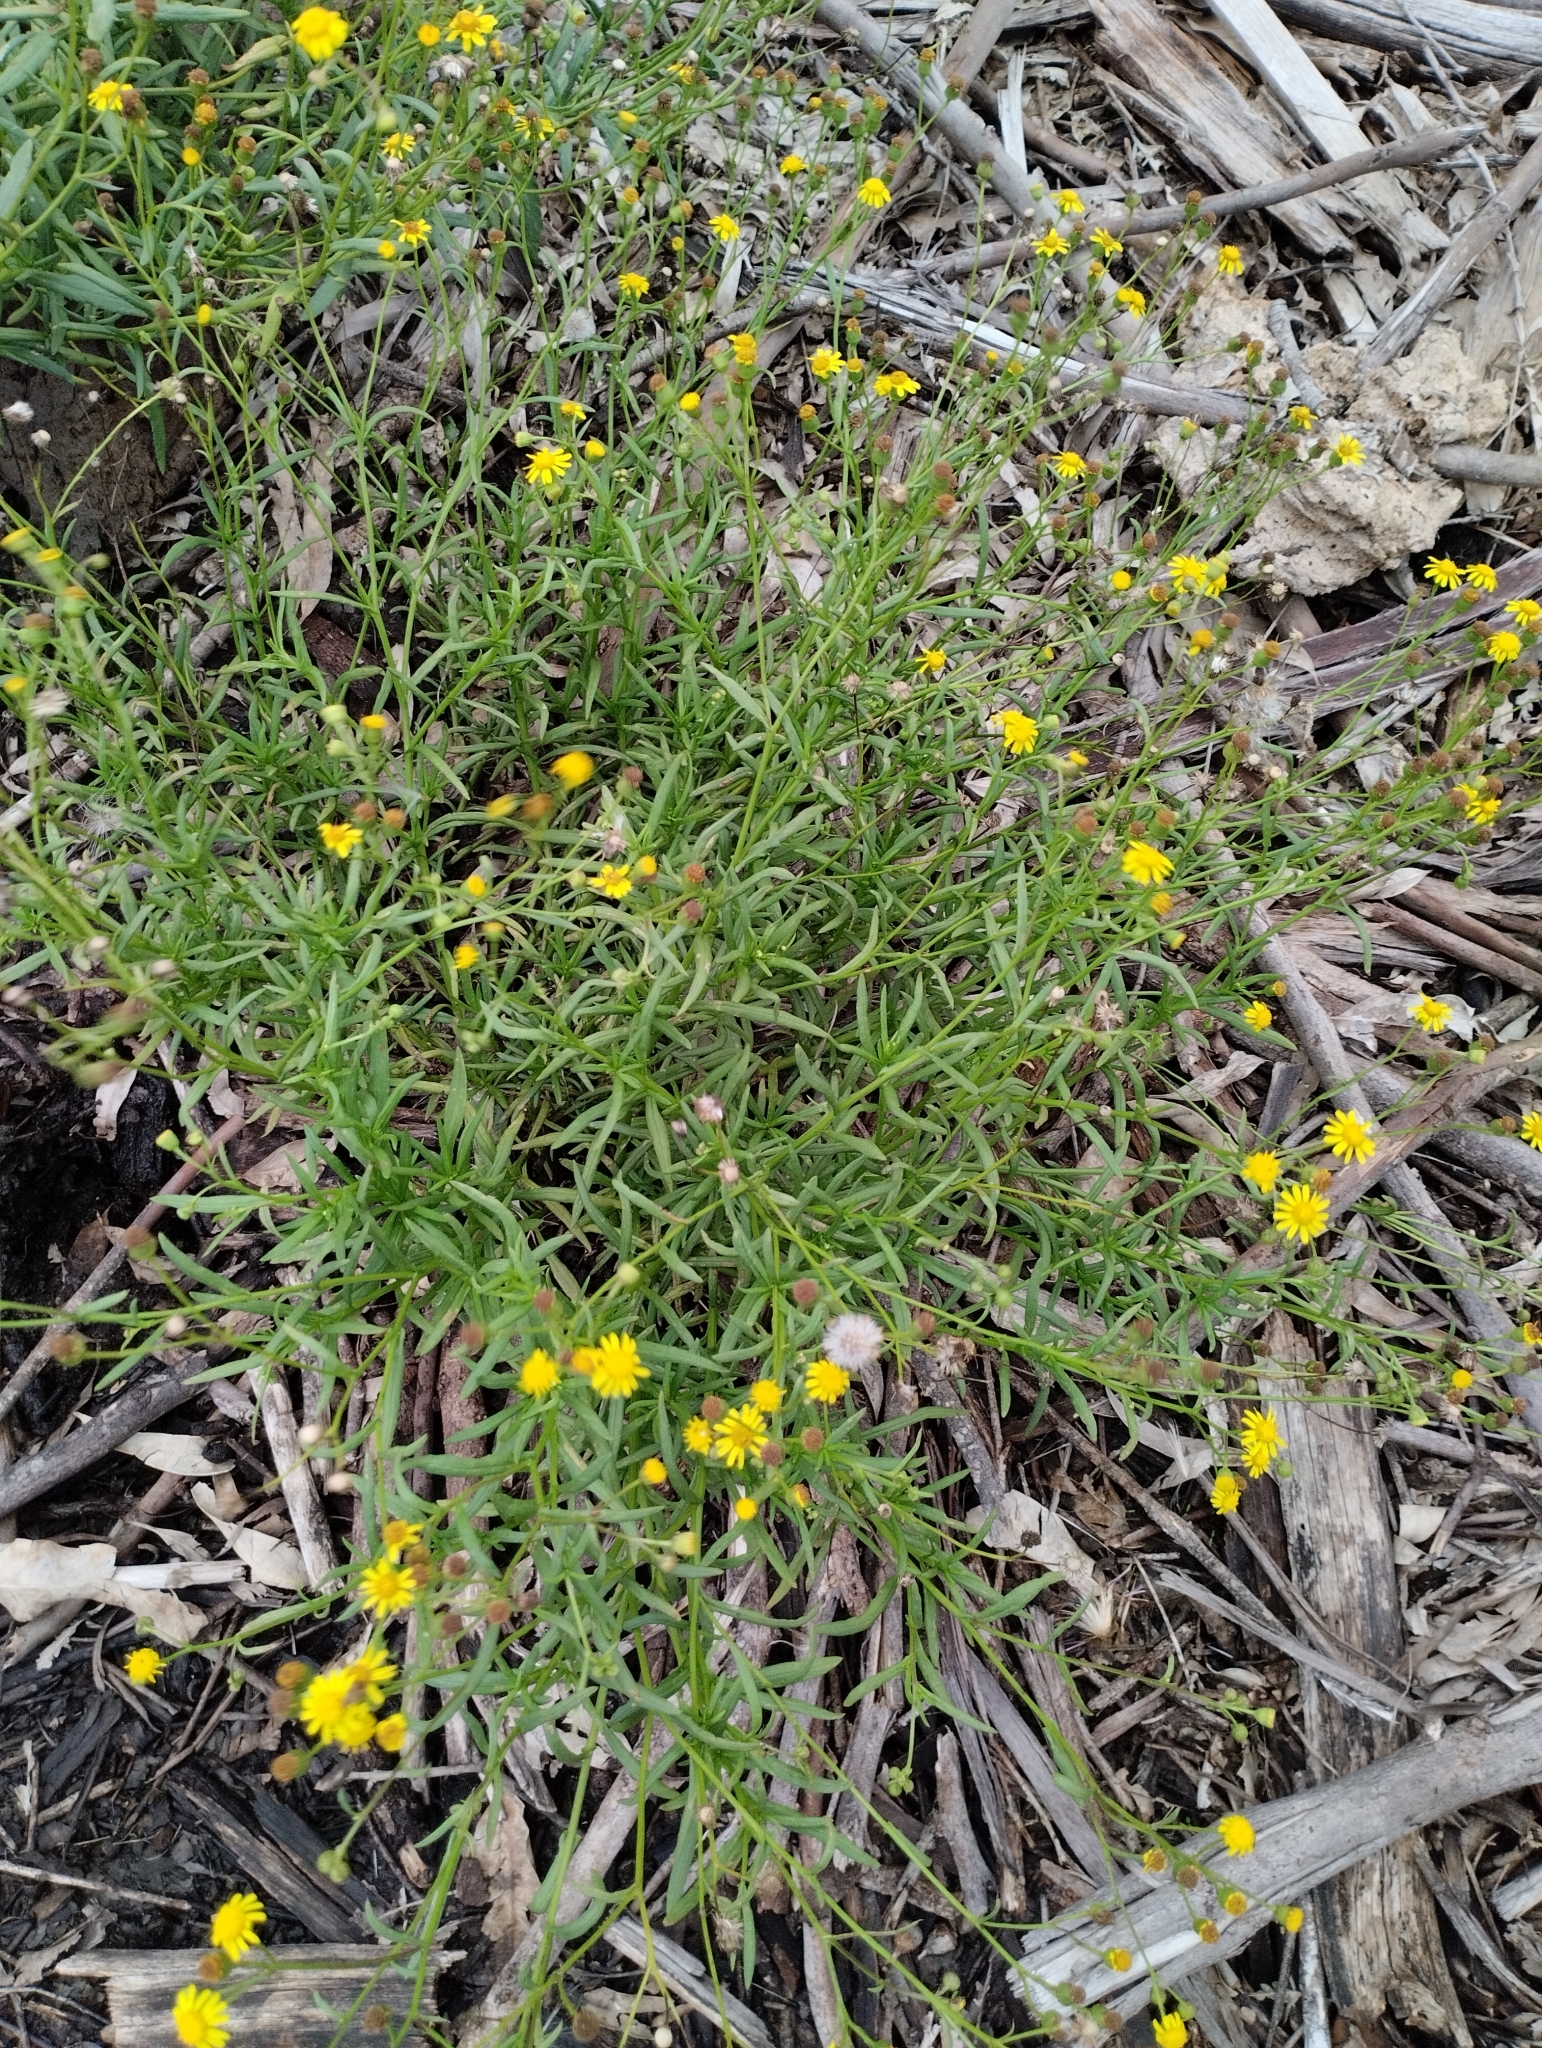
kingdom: Plantae
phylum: Tracheophyta
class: Magnoliopsida
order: Asterales
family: Asteraceae
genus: Senecio
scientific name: Senecio madagascariensis
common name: Madagascar ragwort
